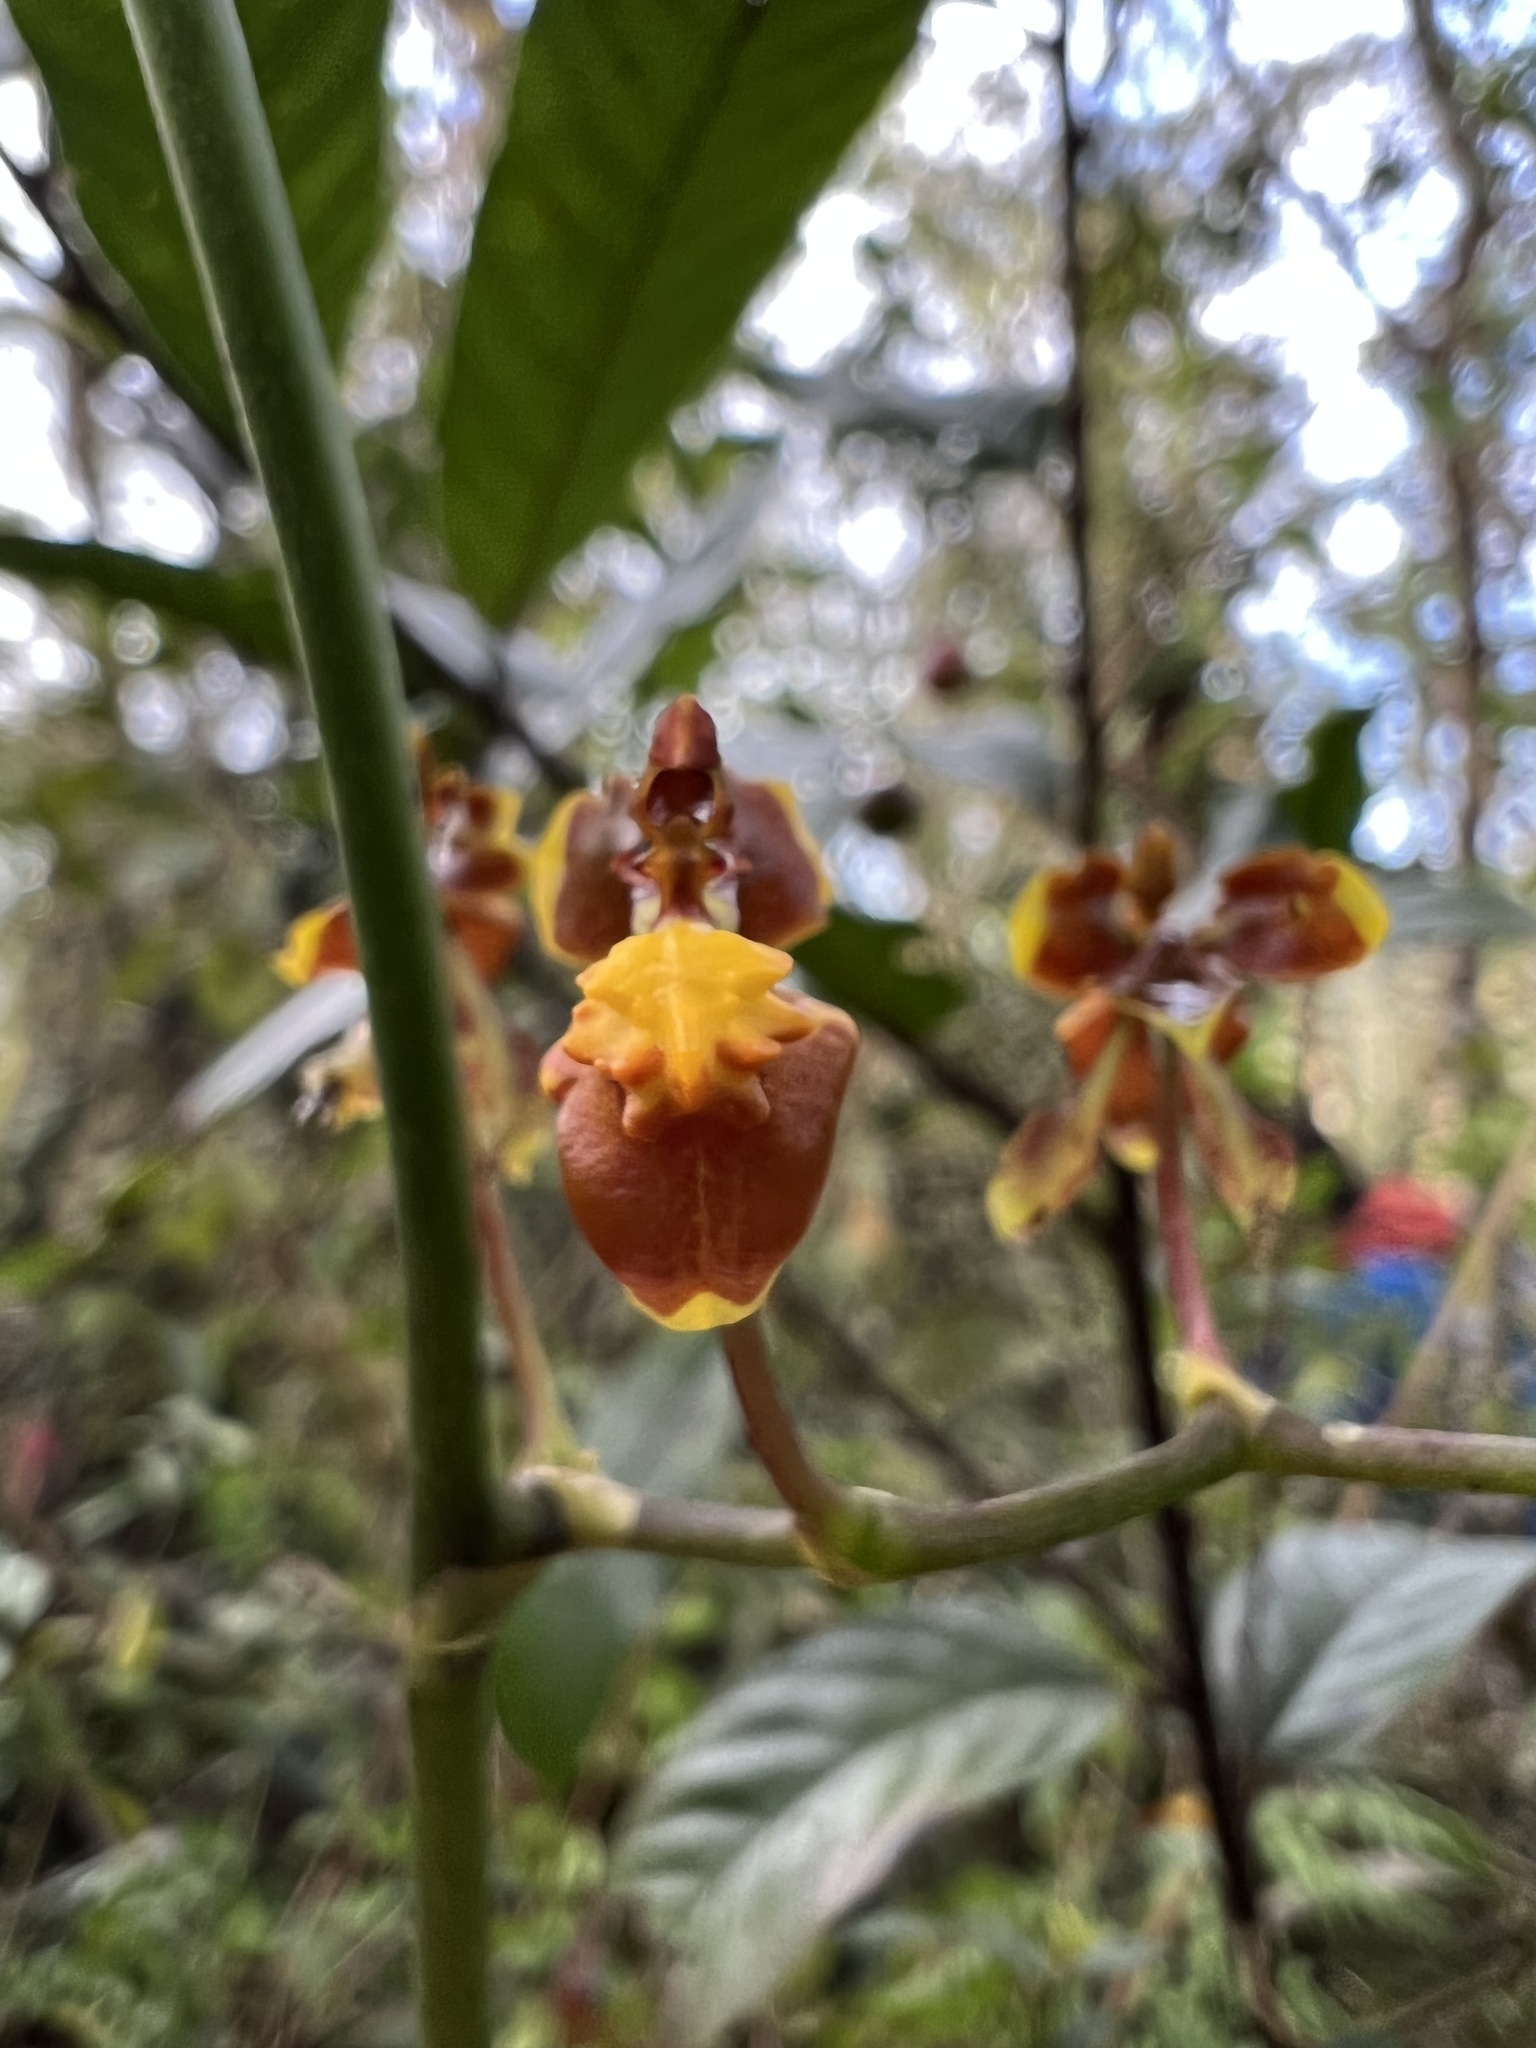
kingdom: Plantae
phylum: Tracheophyta
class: Liliopsida
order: Asparagales
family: Orchidaceae
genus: Cyrtochilum
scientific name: Cyrtochilum exasperatum
